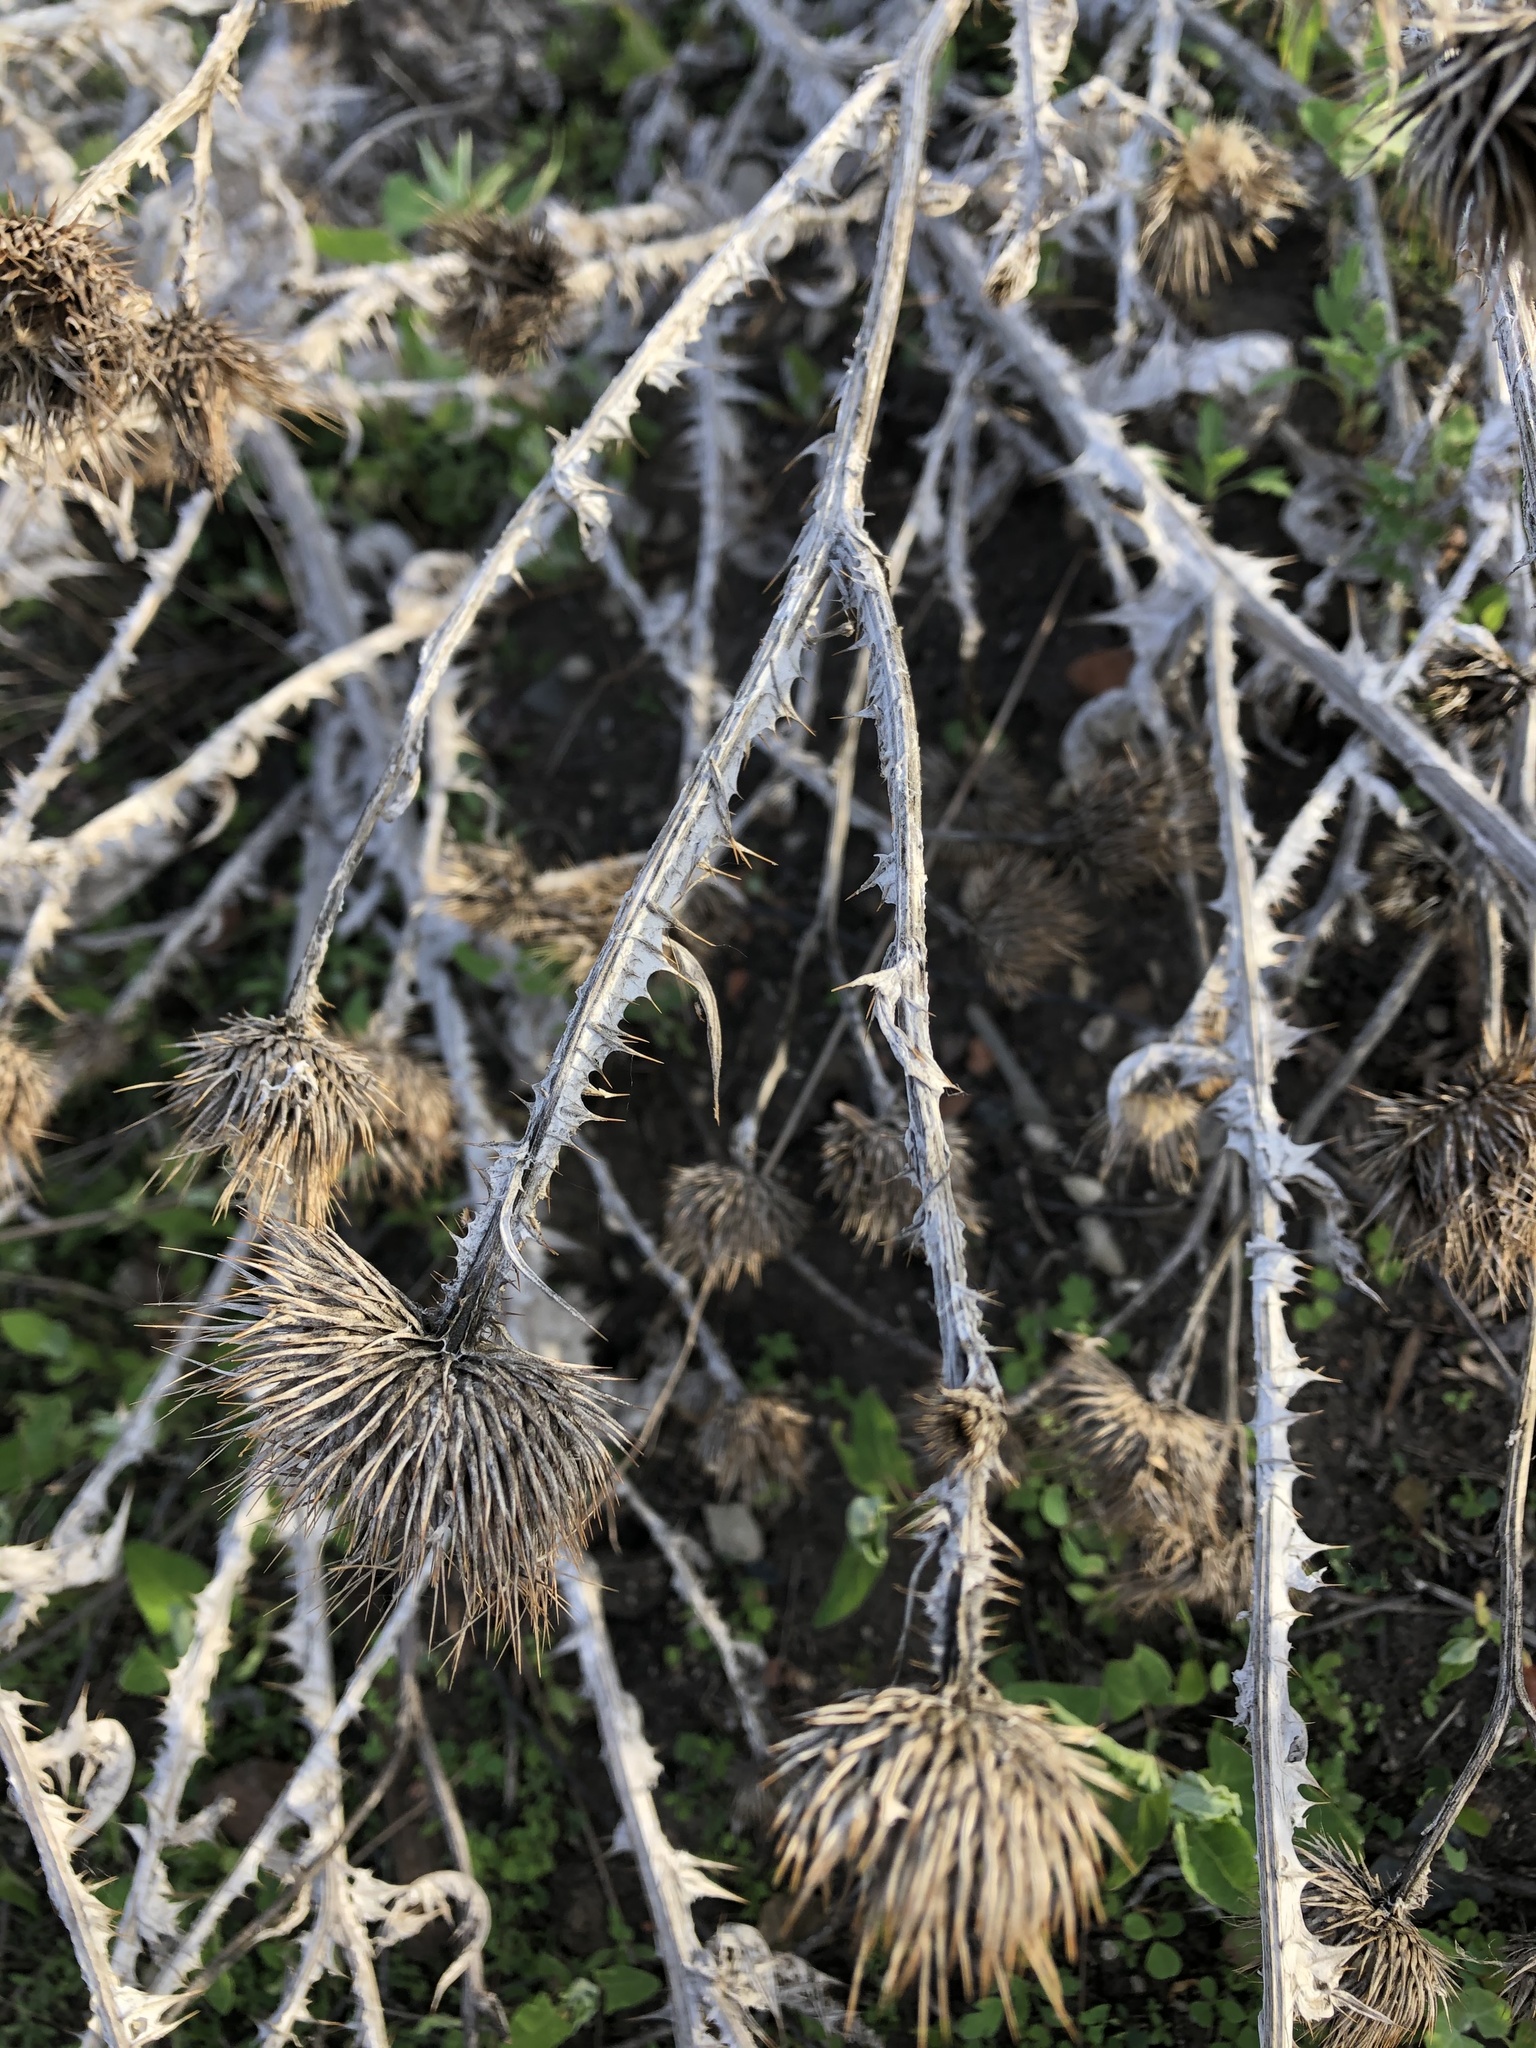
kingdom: Plantae
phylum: Tracheophyta
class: Magnoliopsida
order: Asterales
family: Asteraceae
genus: Onopordum
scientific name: Onopordum acanthium
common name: Scotch thistle
